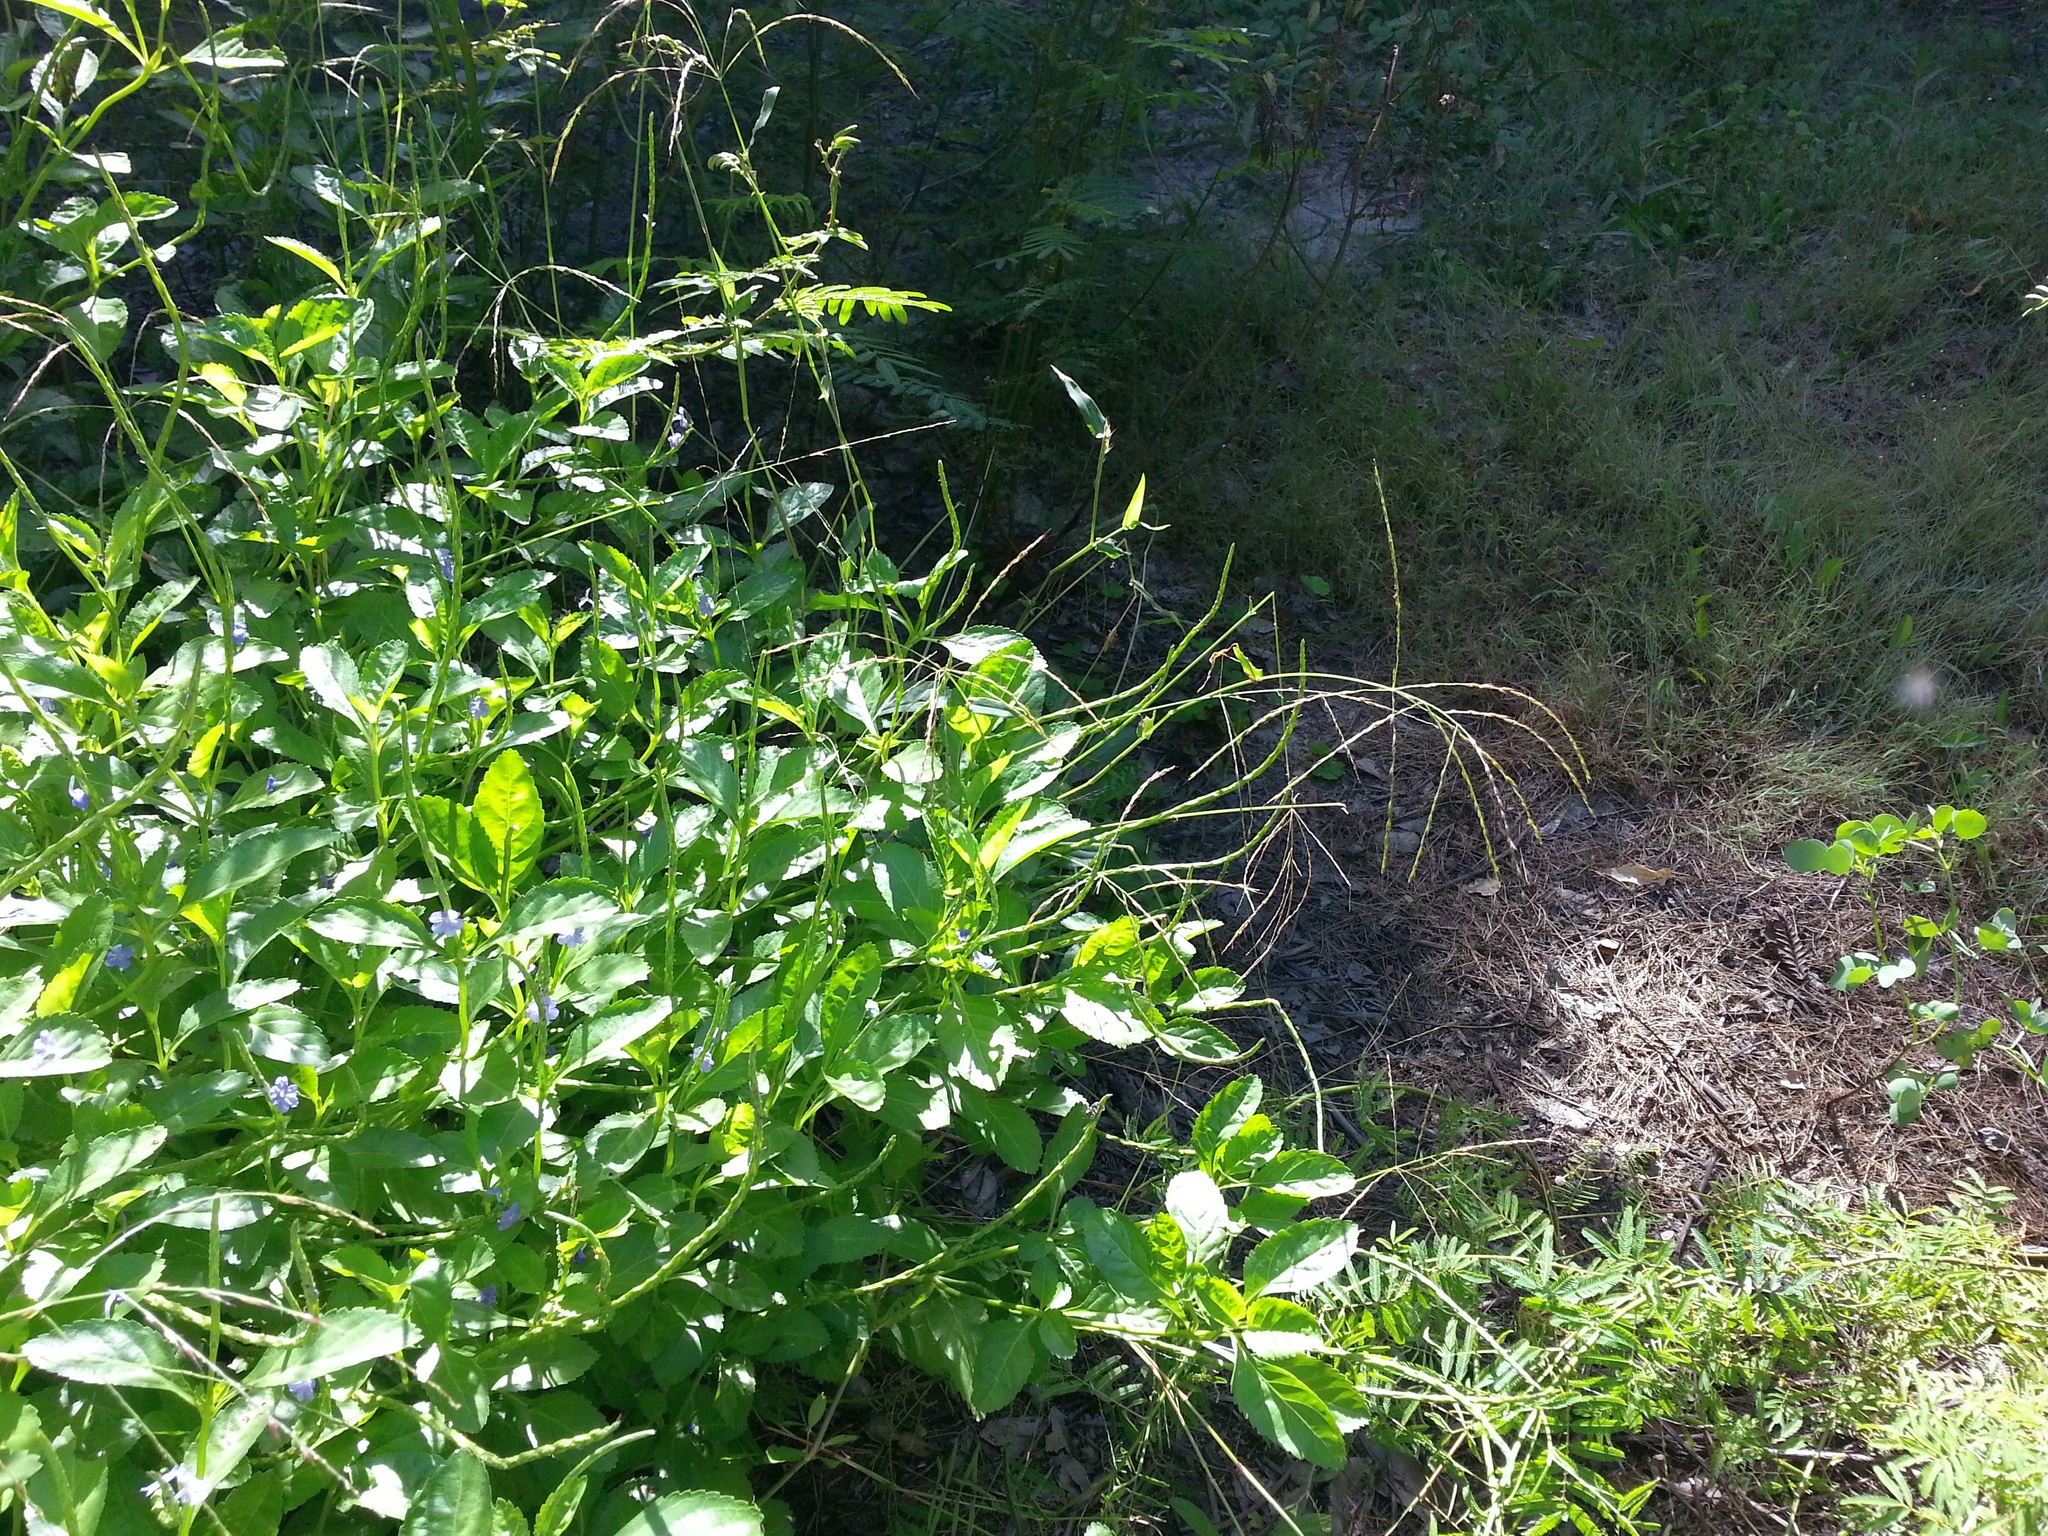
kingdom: Plantae
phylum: Tracheophyta
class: Liliopsida
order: Poales
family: Poaceae
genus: Alloteropsis
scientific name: Alloteropsis paniculata
